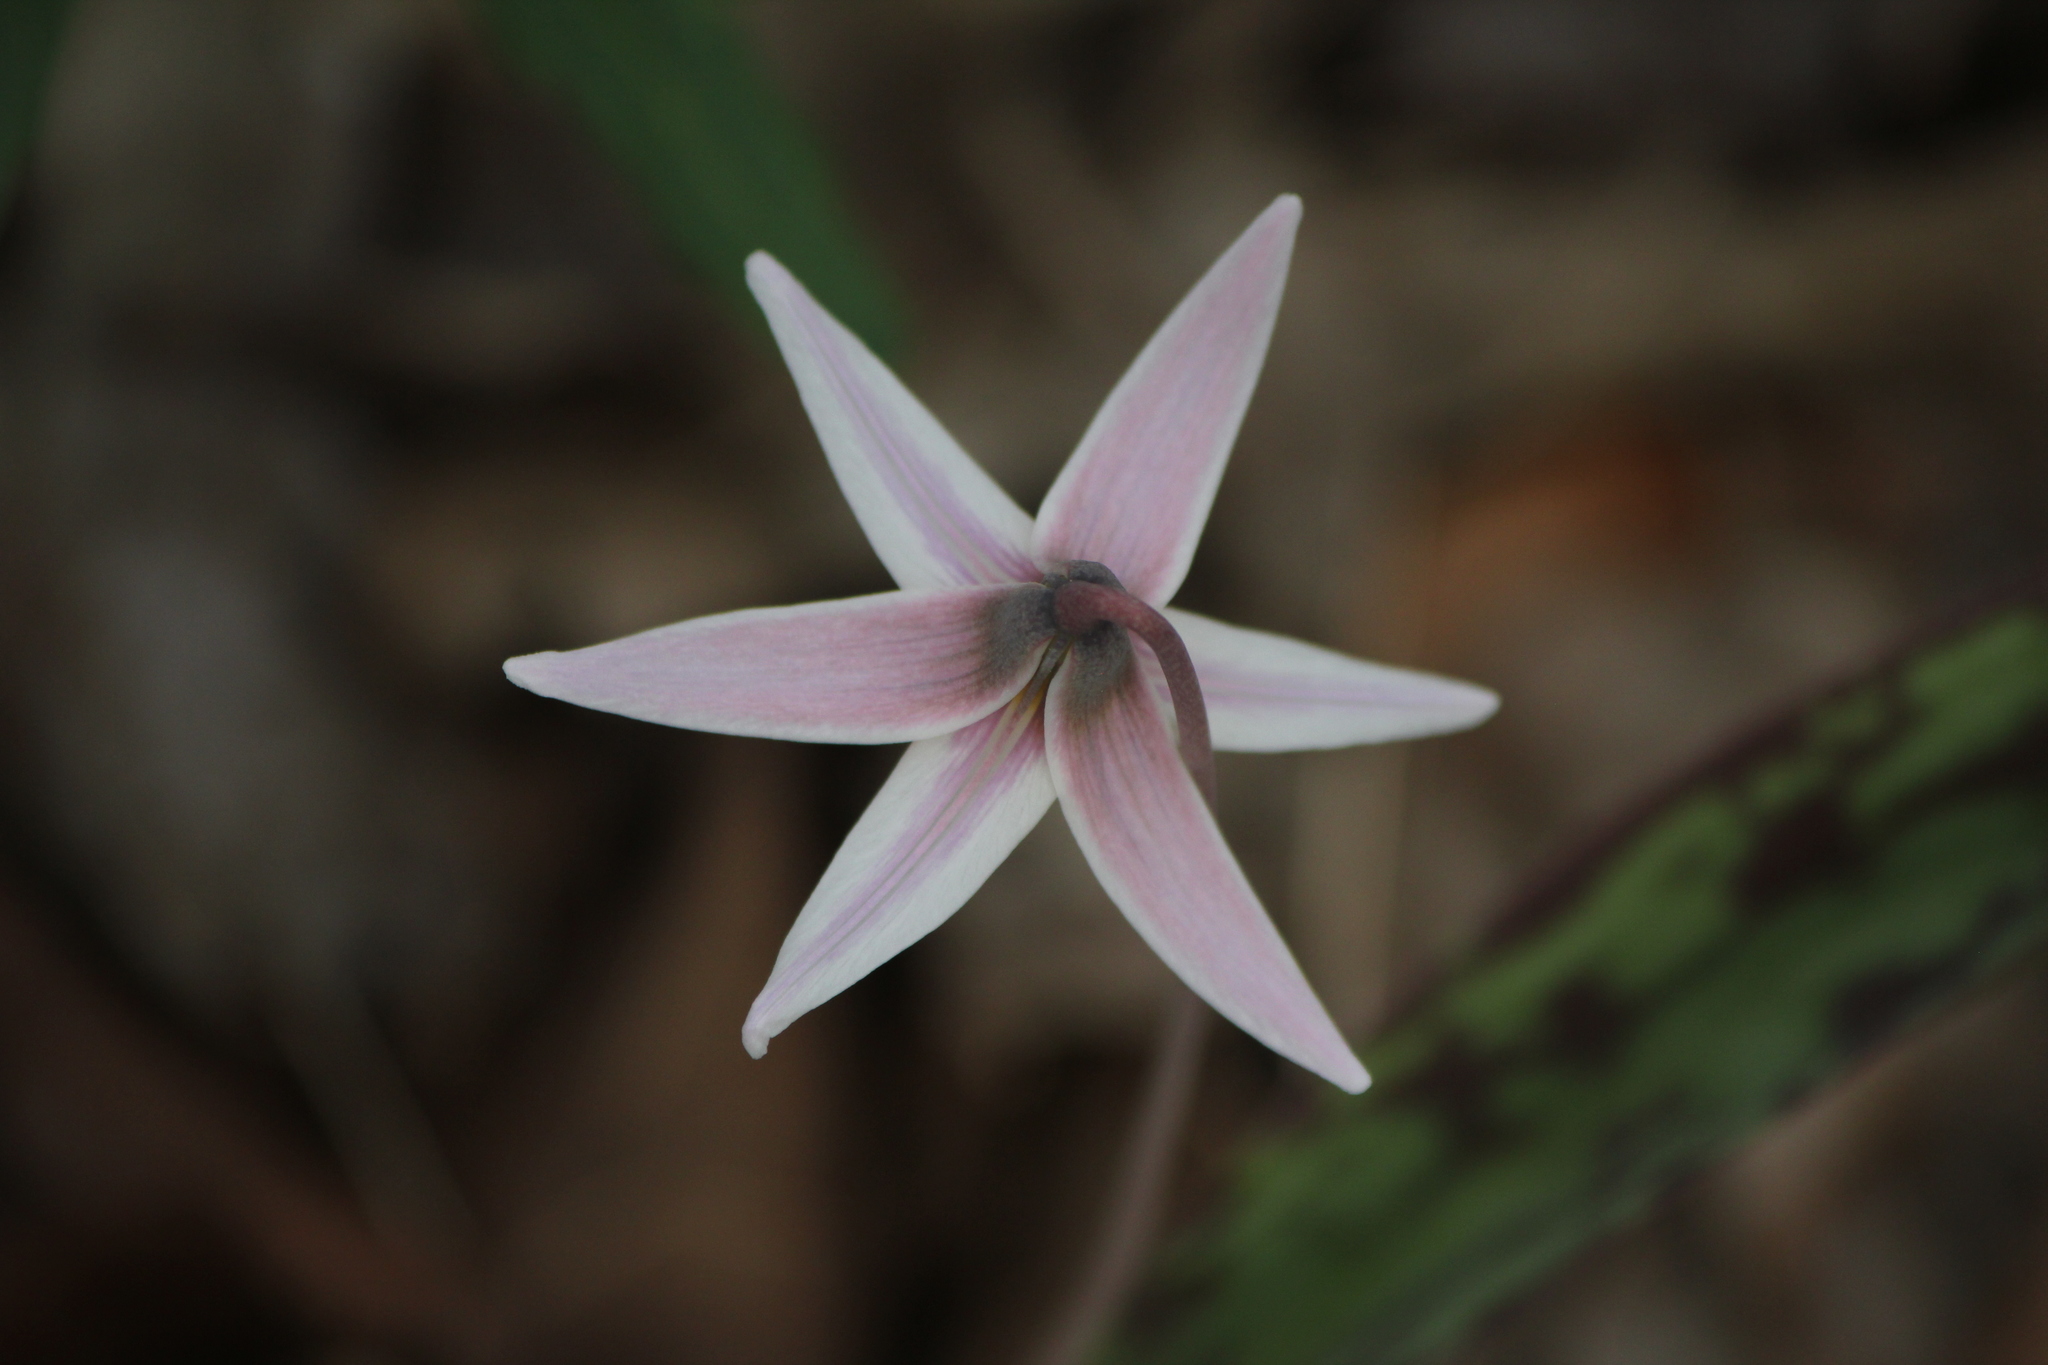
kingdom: Plantae
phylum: Tracheophyta
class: Liliopsida
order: Liliales
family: Liliaceae
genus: Erythronium
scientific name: Erythronium albidum
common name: White trout-lily
